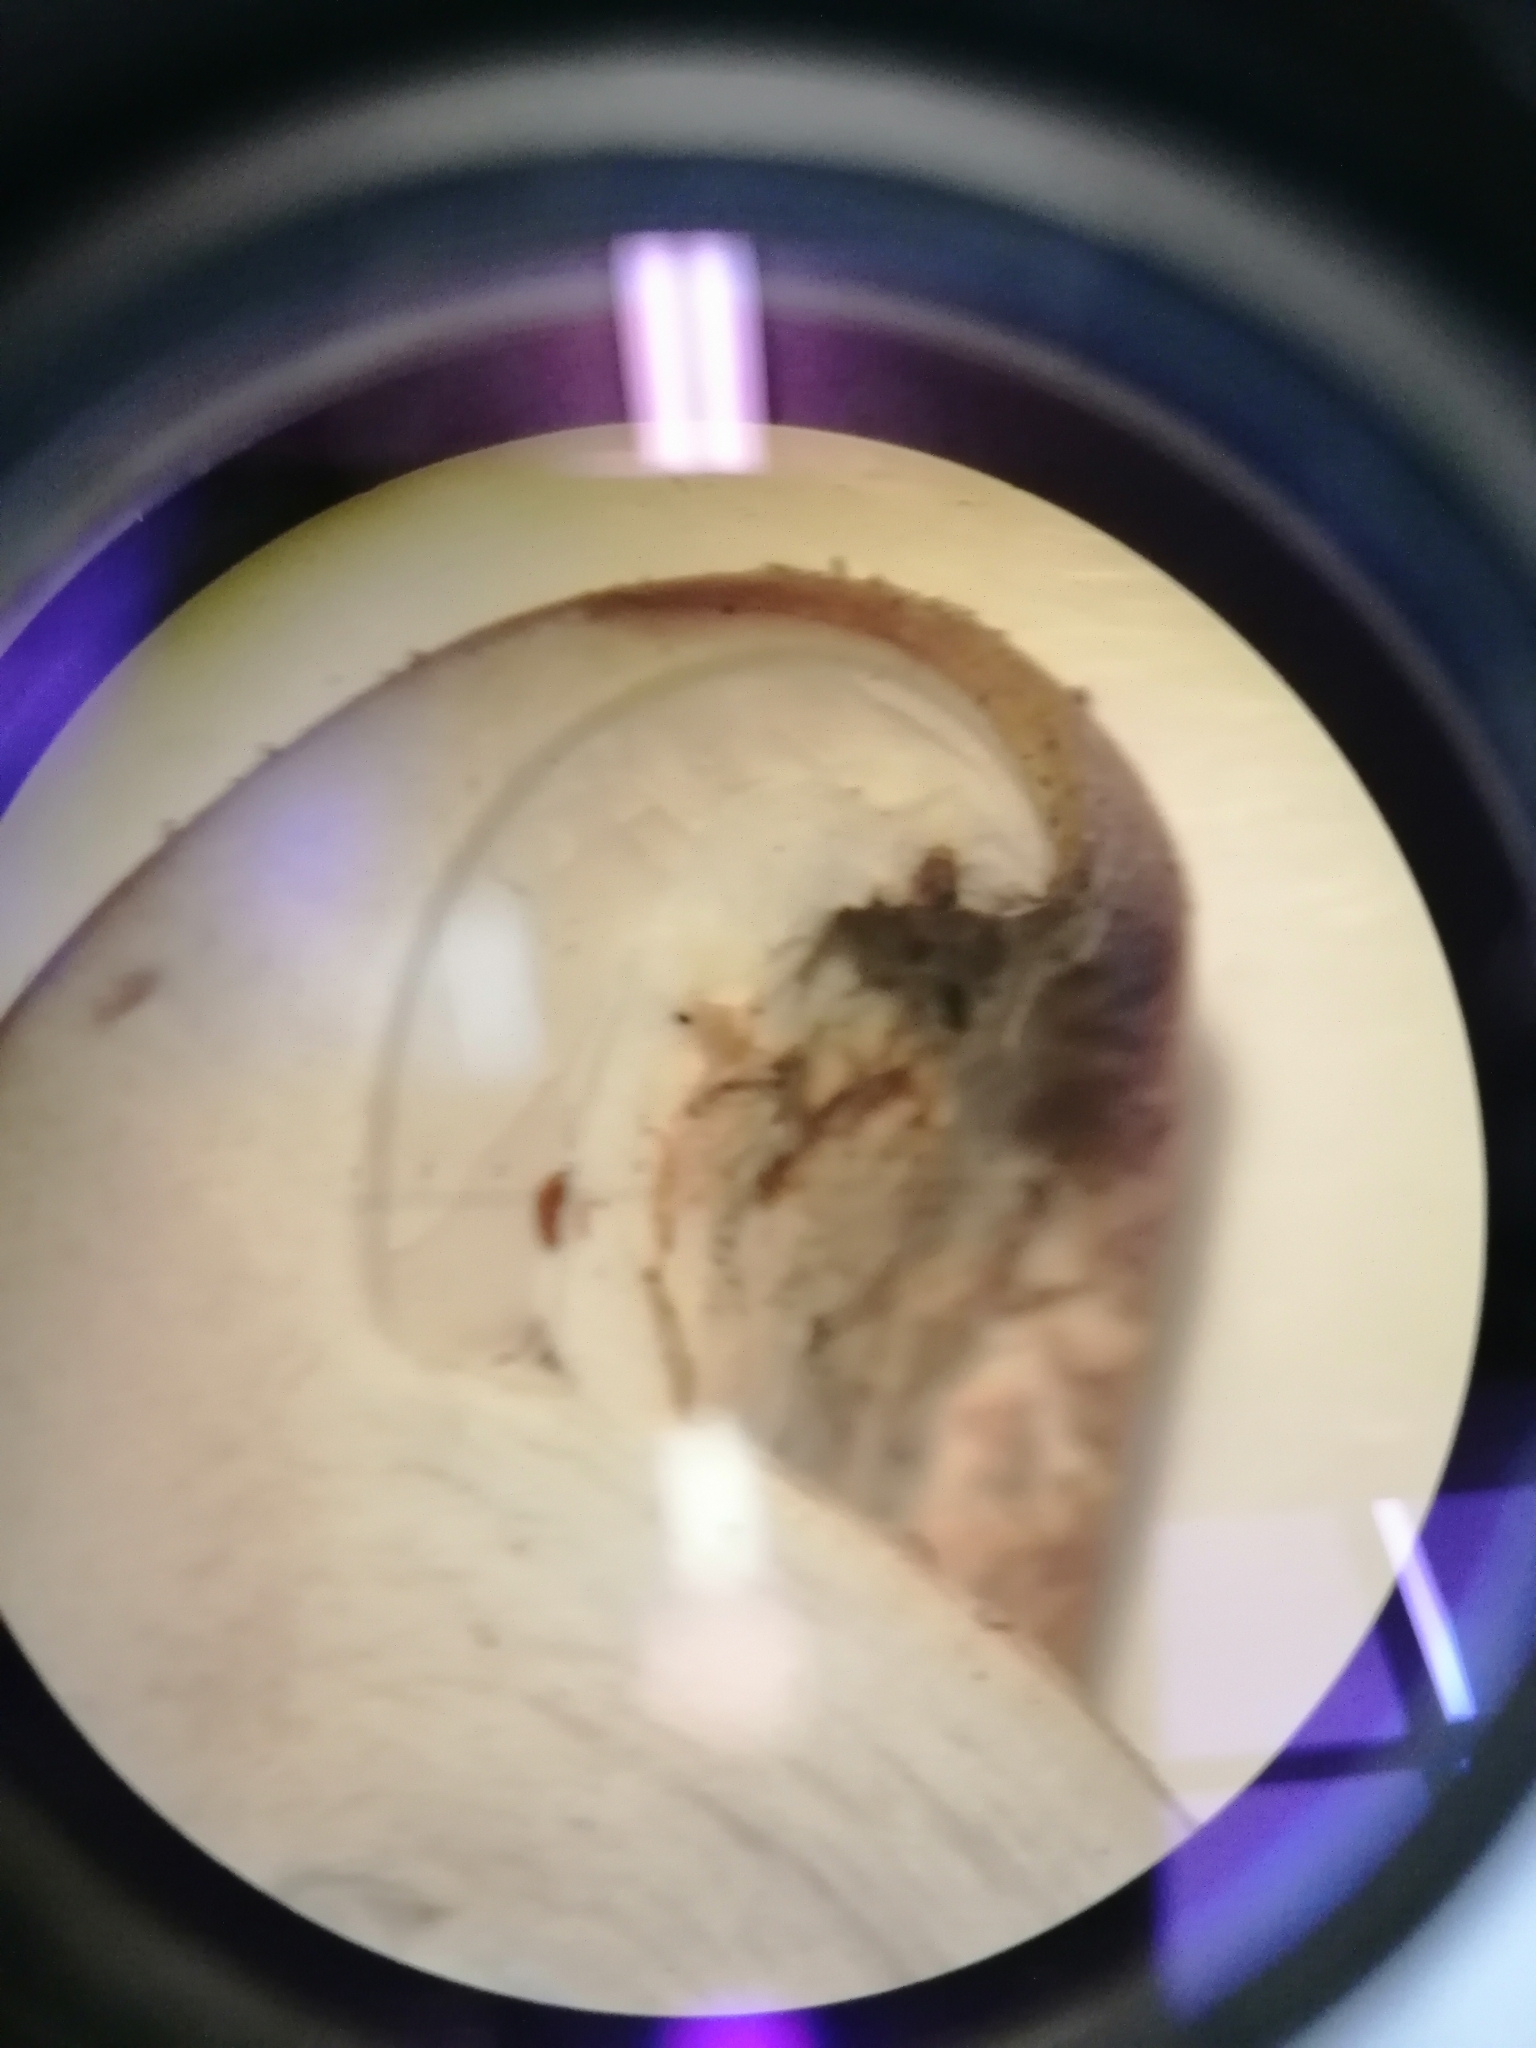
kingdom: Fungi
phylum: Basidiomycota
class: Agaricomycetes
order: Agaricales
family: Tubariaceae
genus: Cyclocybe
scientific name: Cyclocybe parasitica
